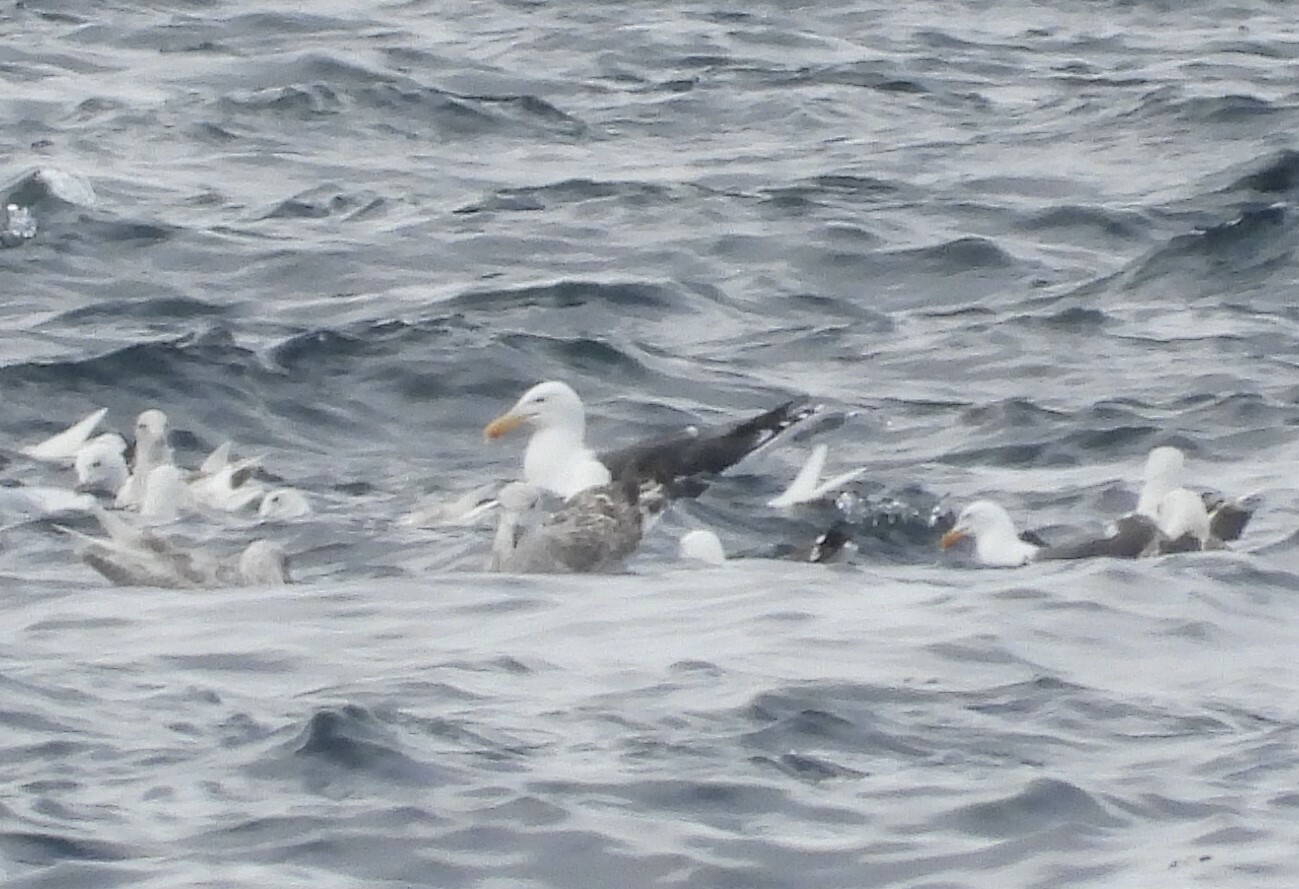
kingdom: Animalia
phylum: Chordata
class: Aves
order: Charadriiformes
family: Laridae
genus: Larus
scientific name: Larus marinus
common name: Great black-backed gull
